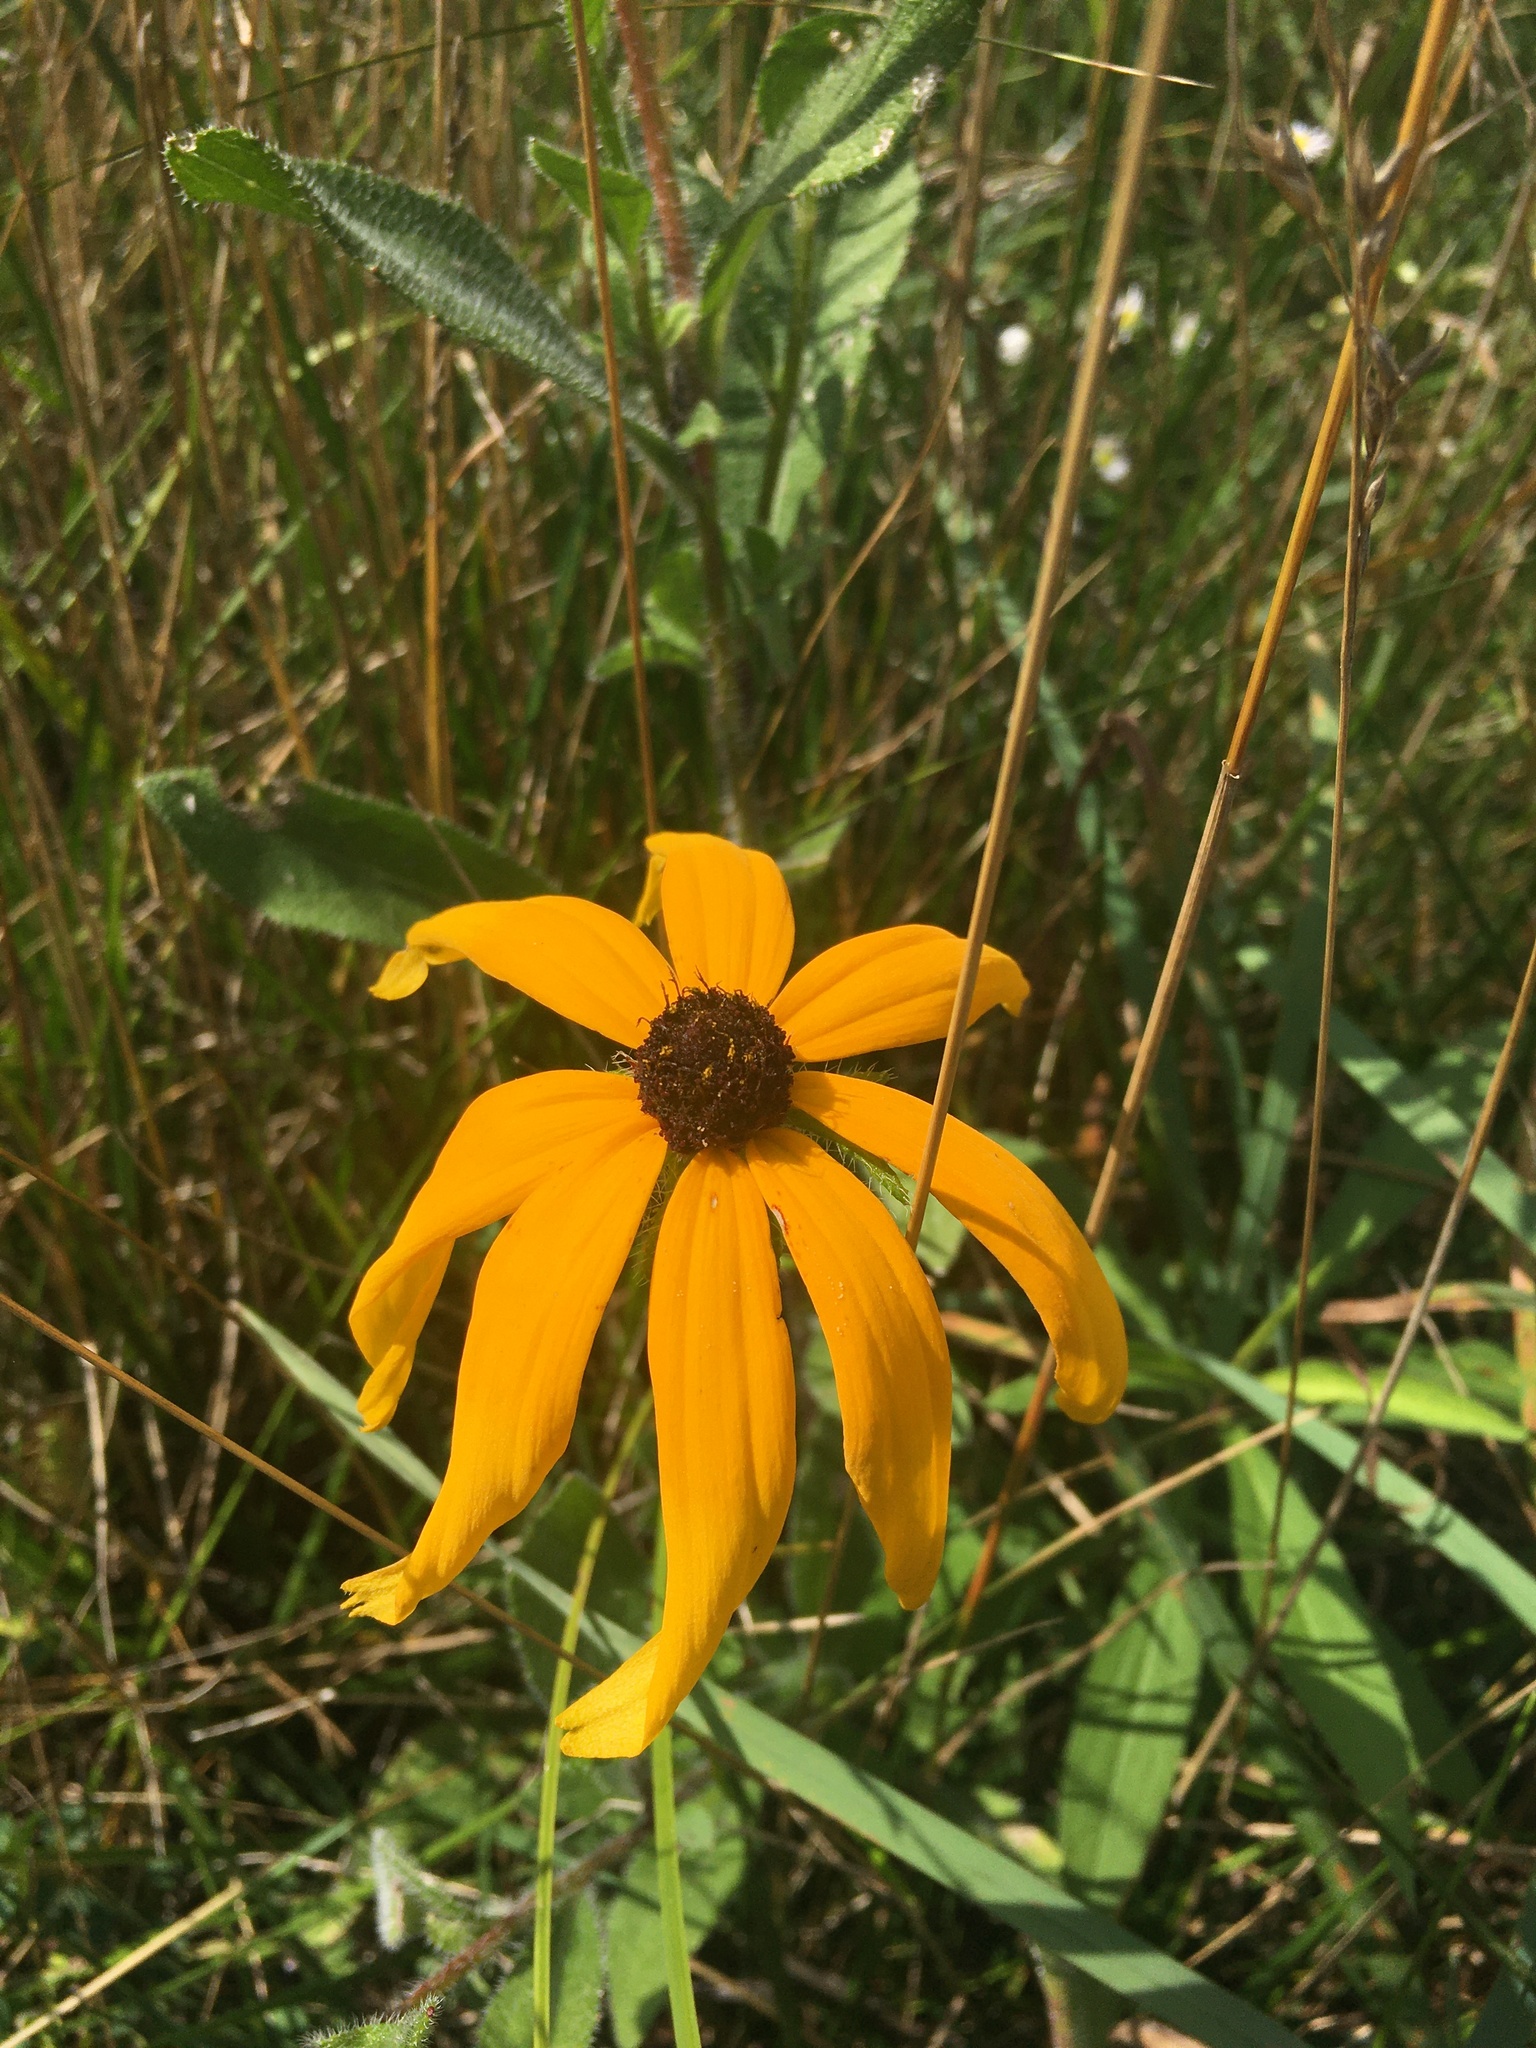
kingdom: Plantae
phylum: Tracheophyta
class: Magnoliopsida
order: Asterales
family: Asteraceae
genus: Rudbeckia
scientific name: Rudbeckia hirta
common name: Black-eyed-susan
